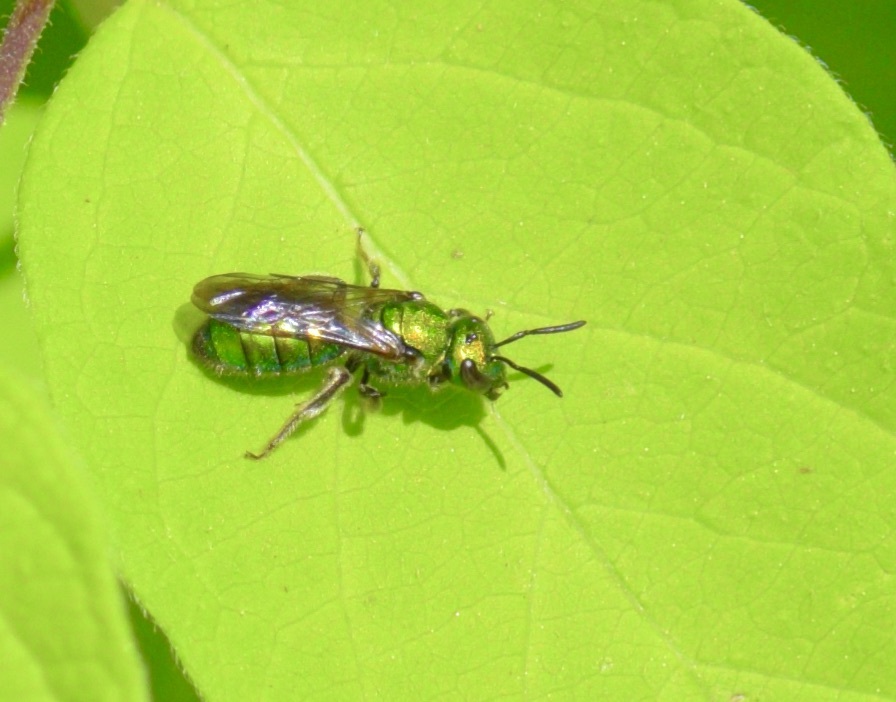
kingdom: Animalia
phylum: Arthropoda
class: Insecta
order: Hymenoptera
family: Halictidae
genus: Augochlora
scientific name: Augochlora pura
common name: Pure green sweat bee
